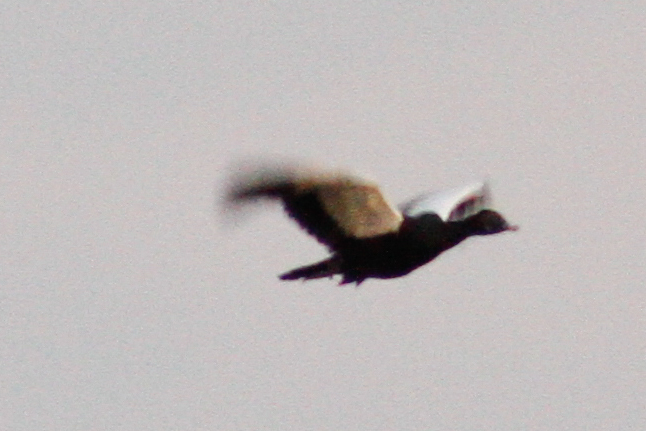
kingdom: Animalia
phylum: Chordata
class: Aves
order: Anseriformes
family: Anatidae
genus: Cairina
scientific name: Cairina moschata
